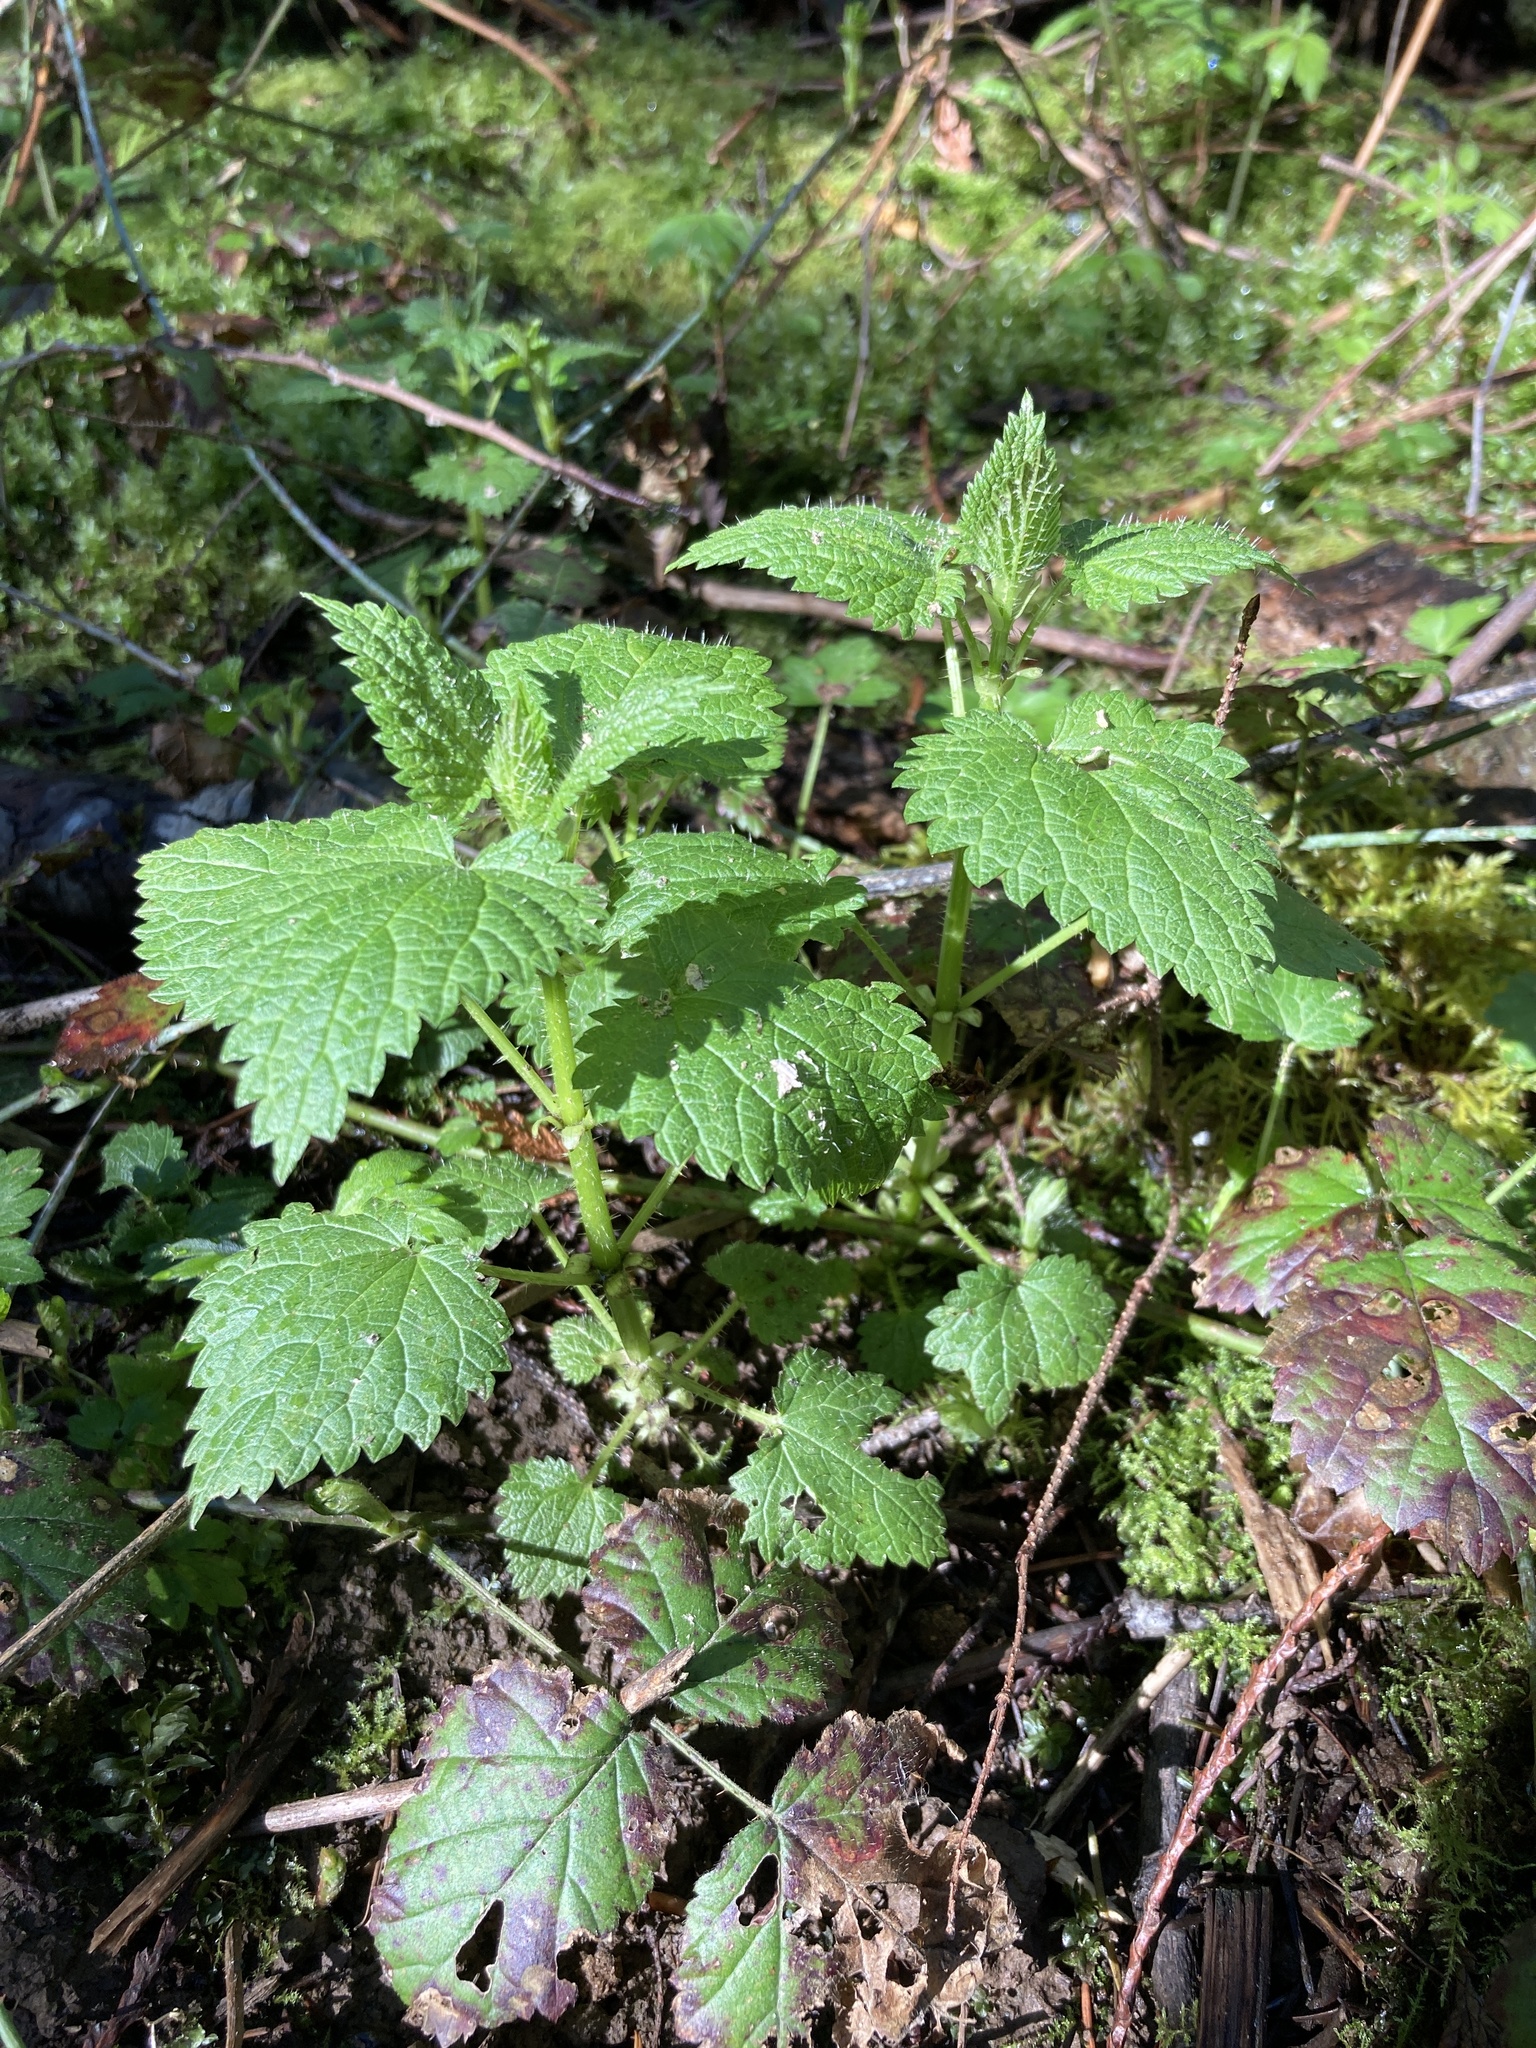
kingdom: Plantae
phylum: Tracheophyta
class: Magnoliopsida
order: Rosales
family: Urticaceae
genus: Urtica
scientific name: Urtica dioica
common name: Common nettle
